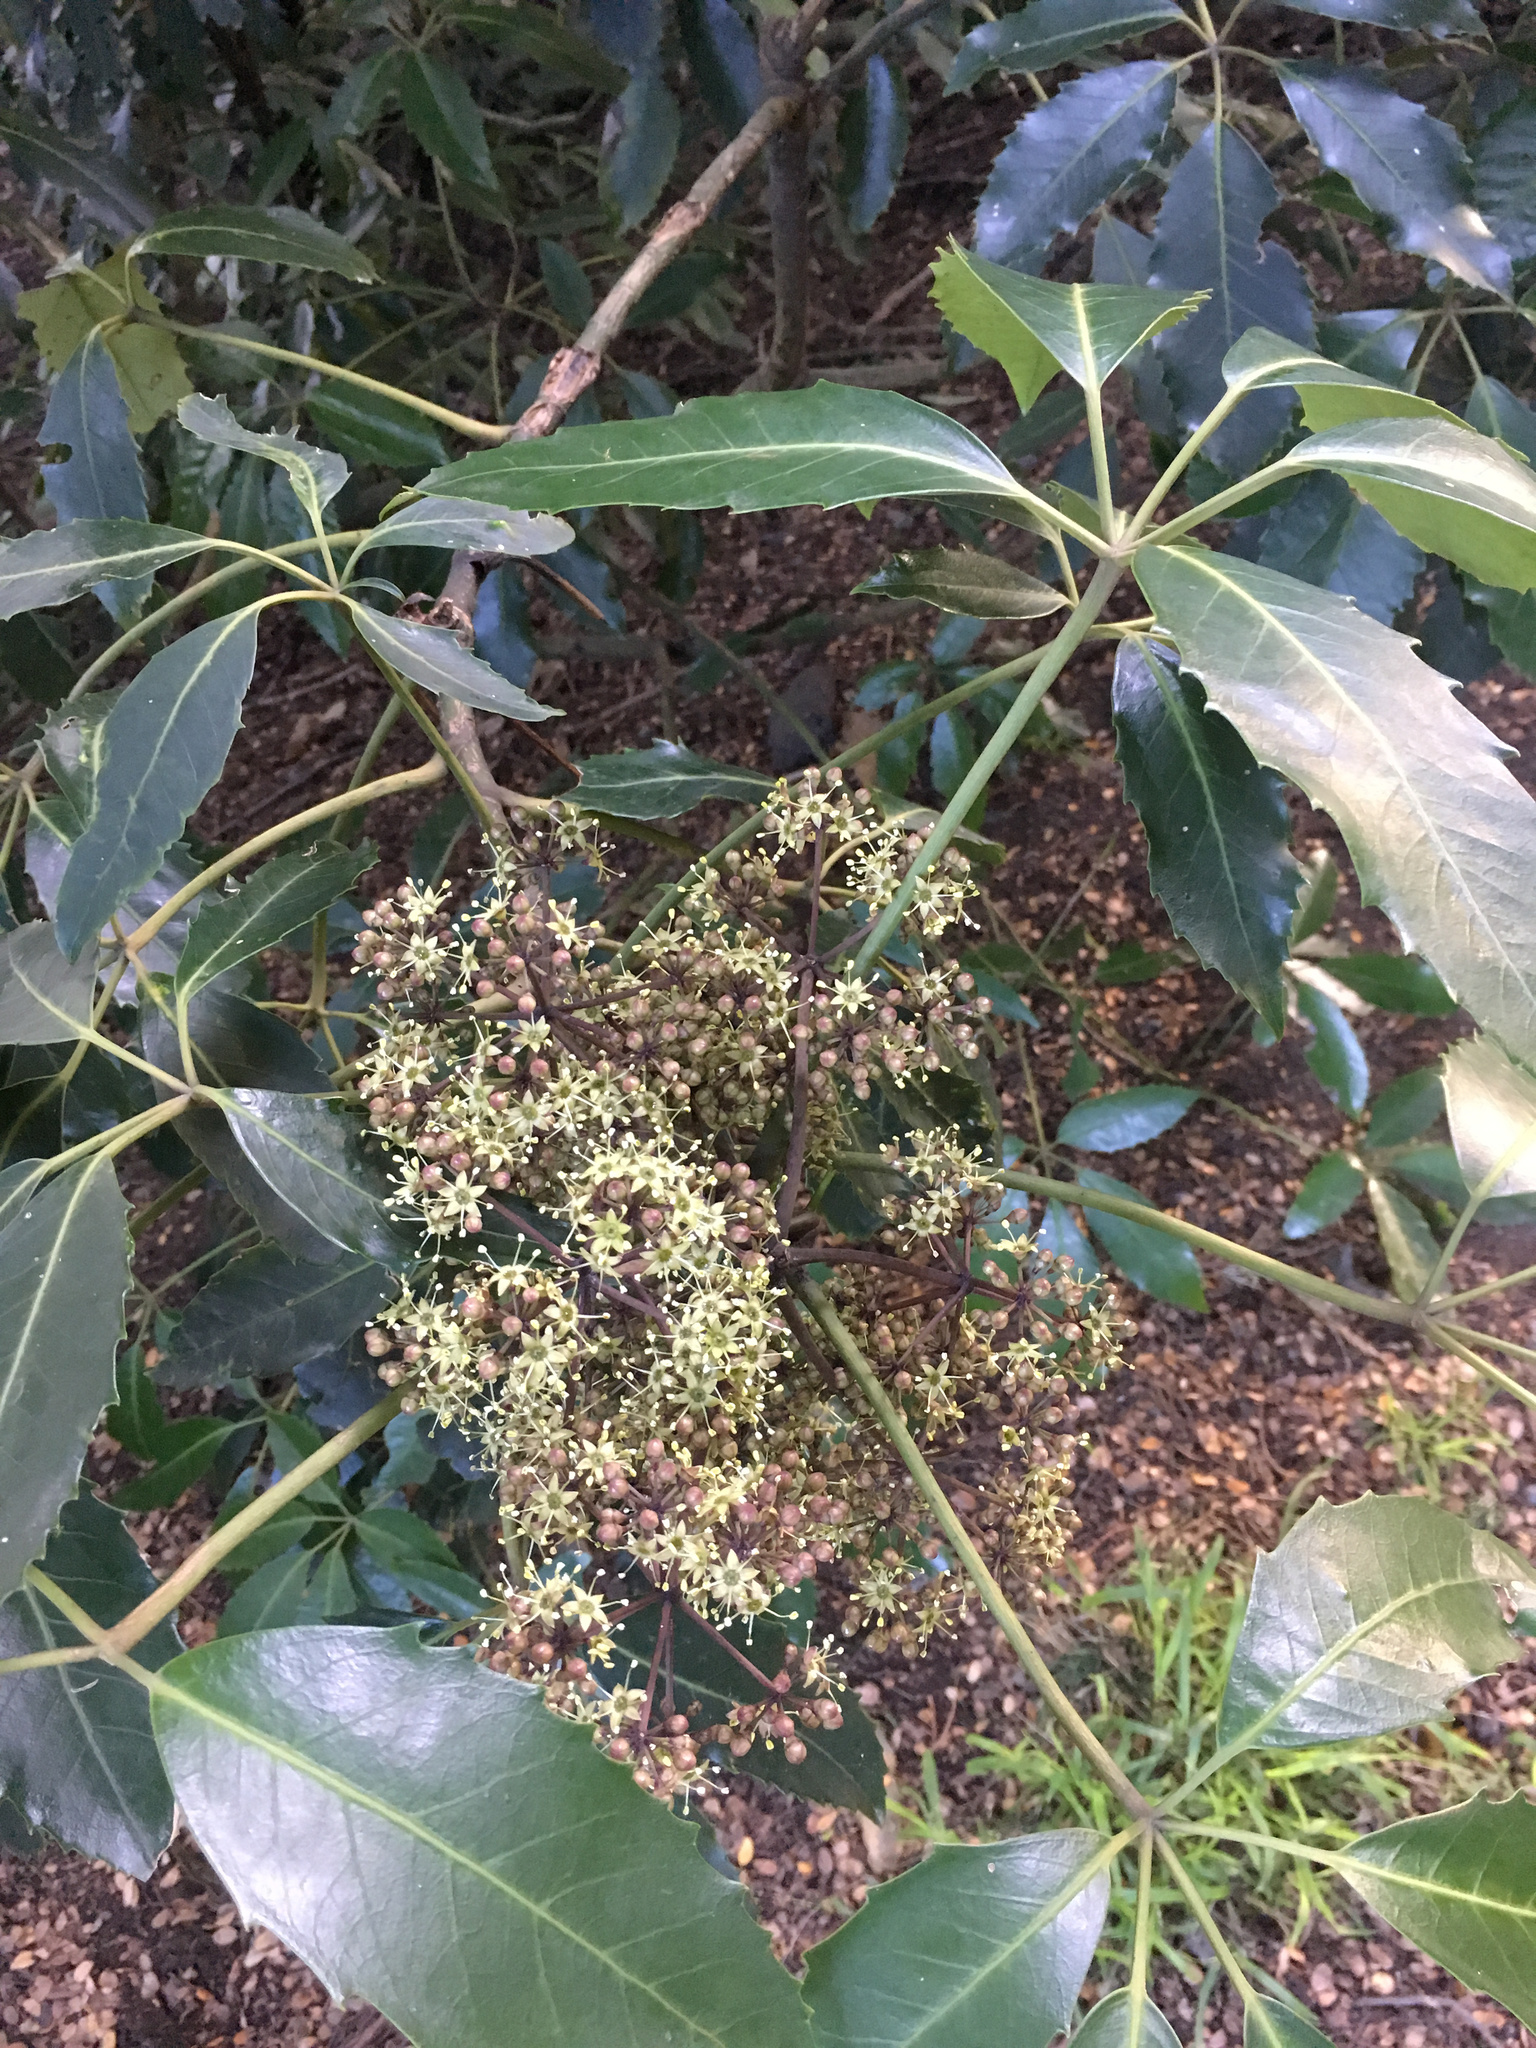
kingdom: Plantae
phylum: Tracheophyta
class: Magnoliopsida
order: Apiales
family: Araliaceae
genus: Neopanax
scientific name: Neopanax arboreus
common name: Five-fingers
